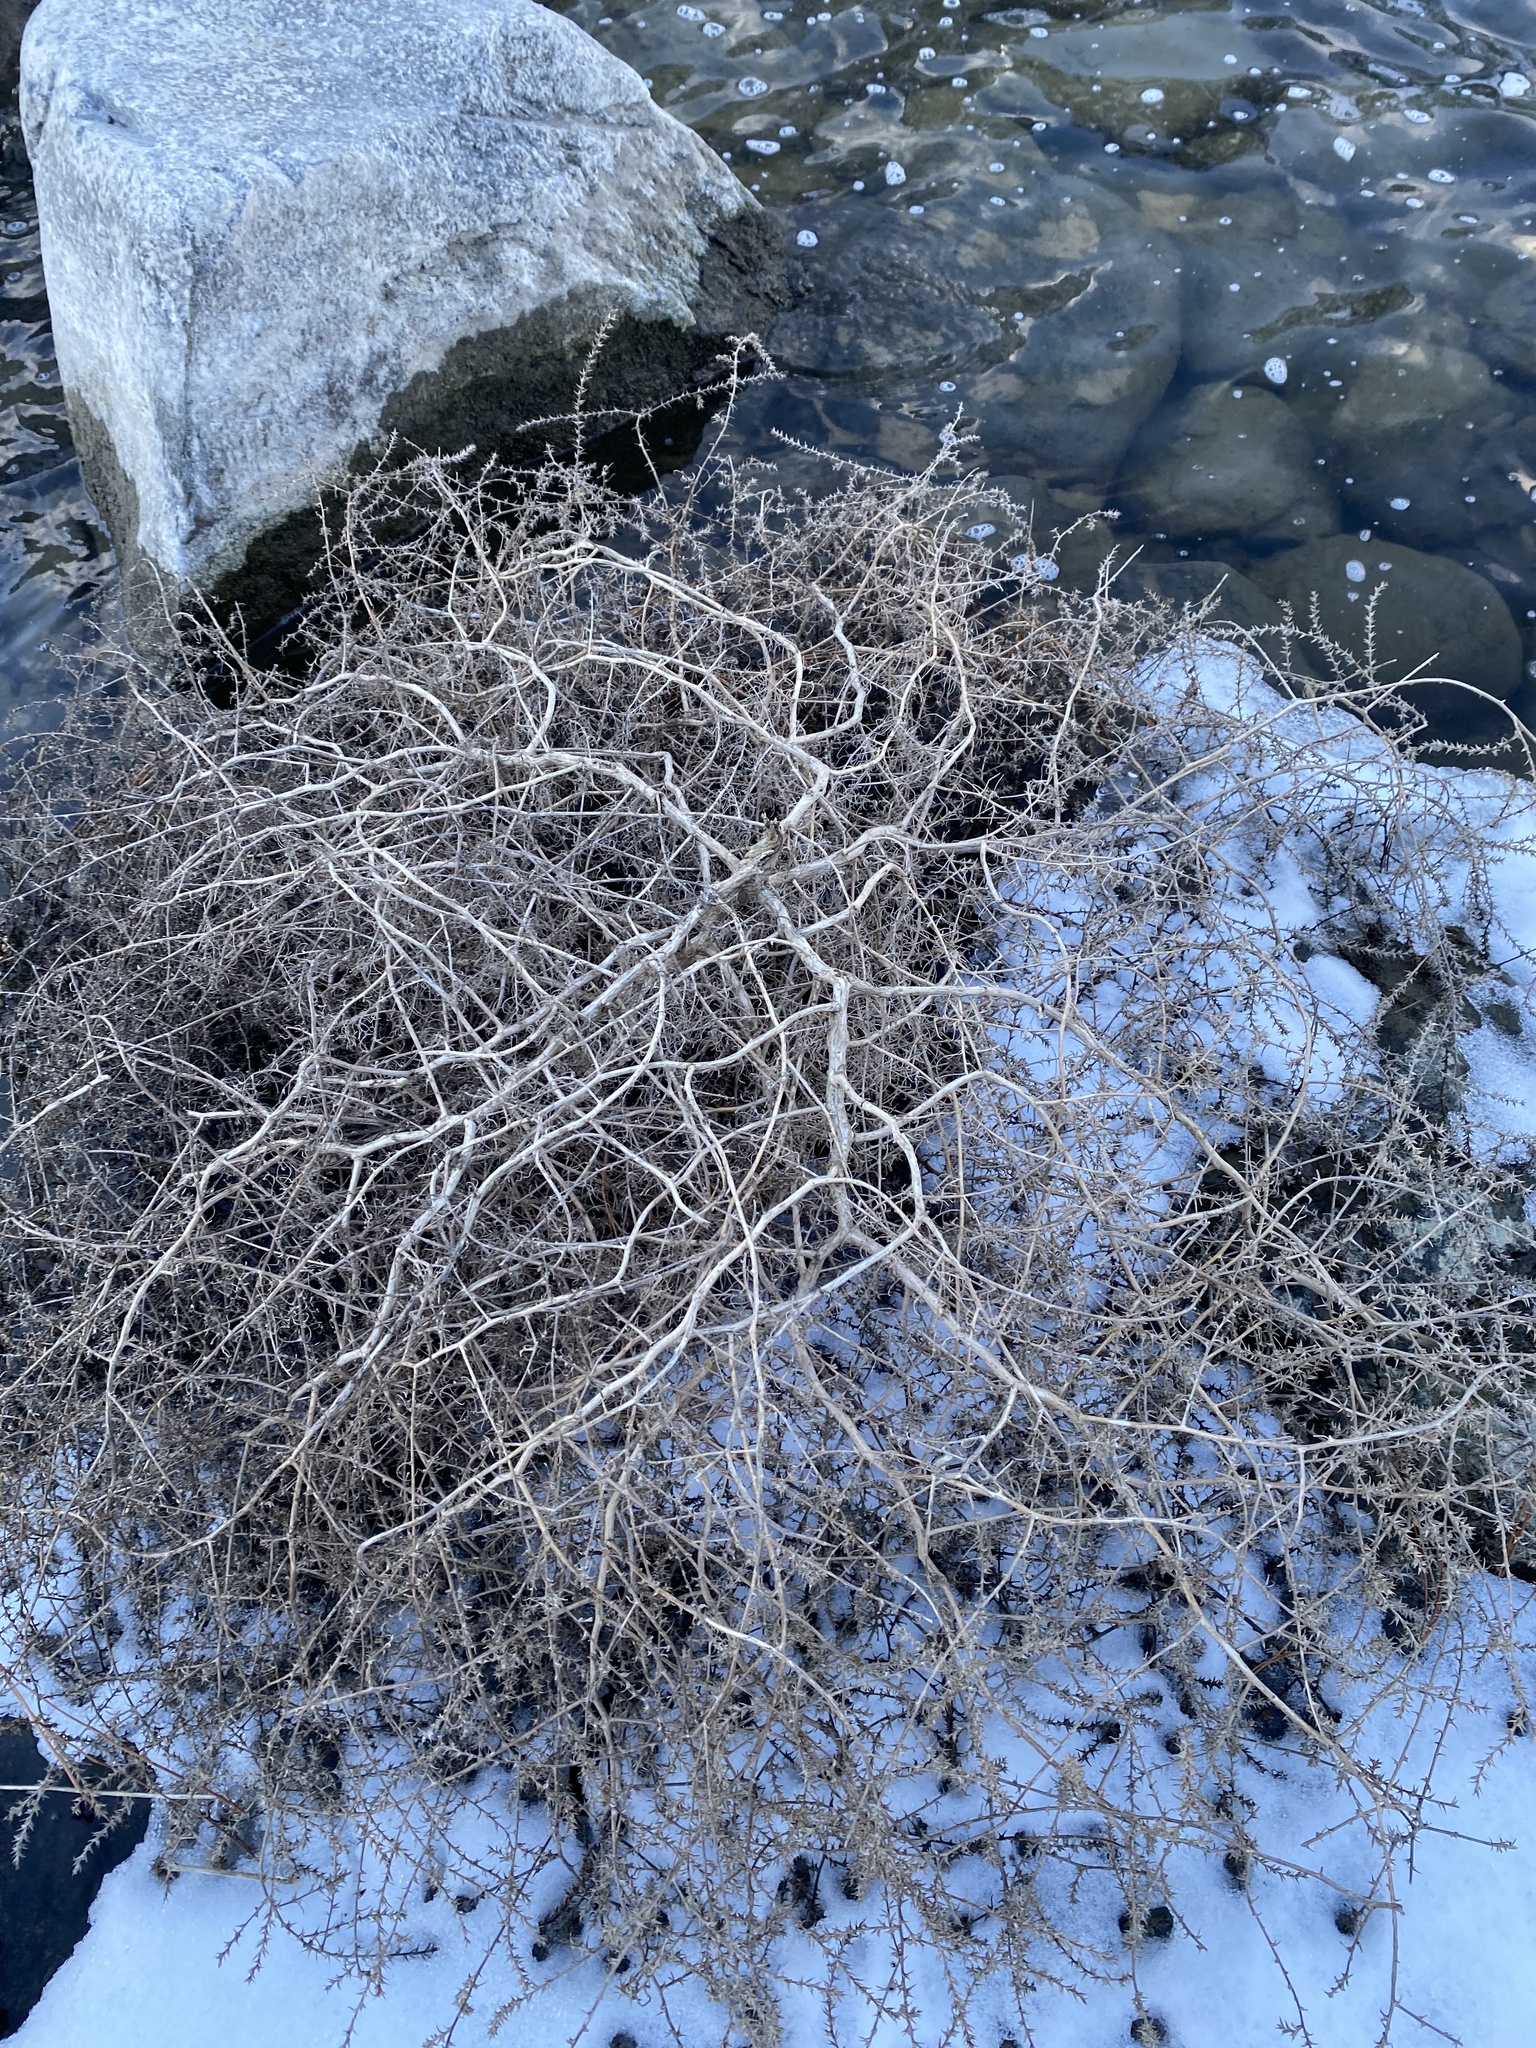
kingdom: Plantae
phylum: Tracheophyta
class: Magnoliopsida
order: Caryophyllales
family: Amaranthaceae
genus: Salsola
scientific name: Salsola tragus
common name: Prickly russian thistle
